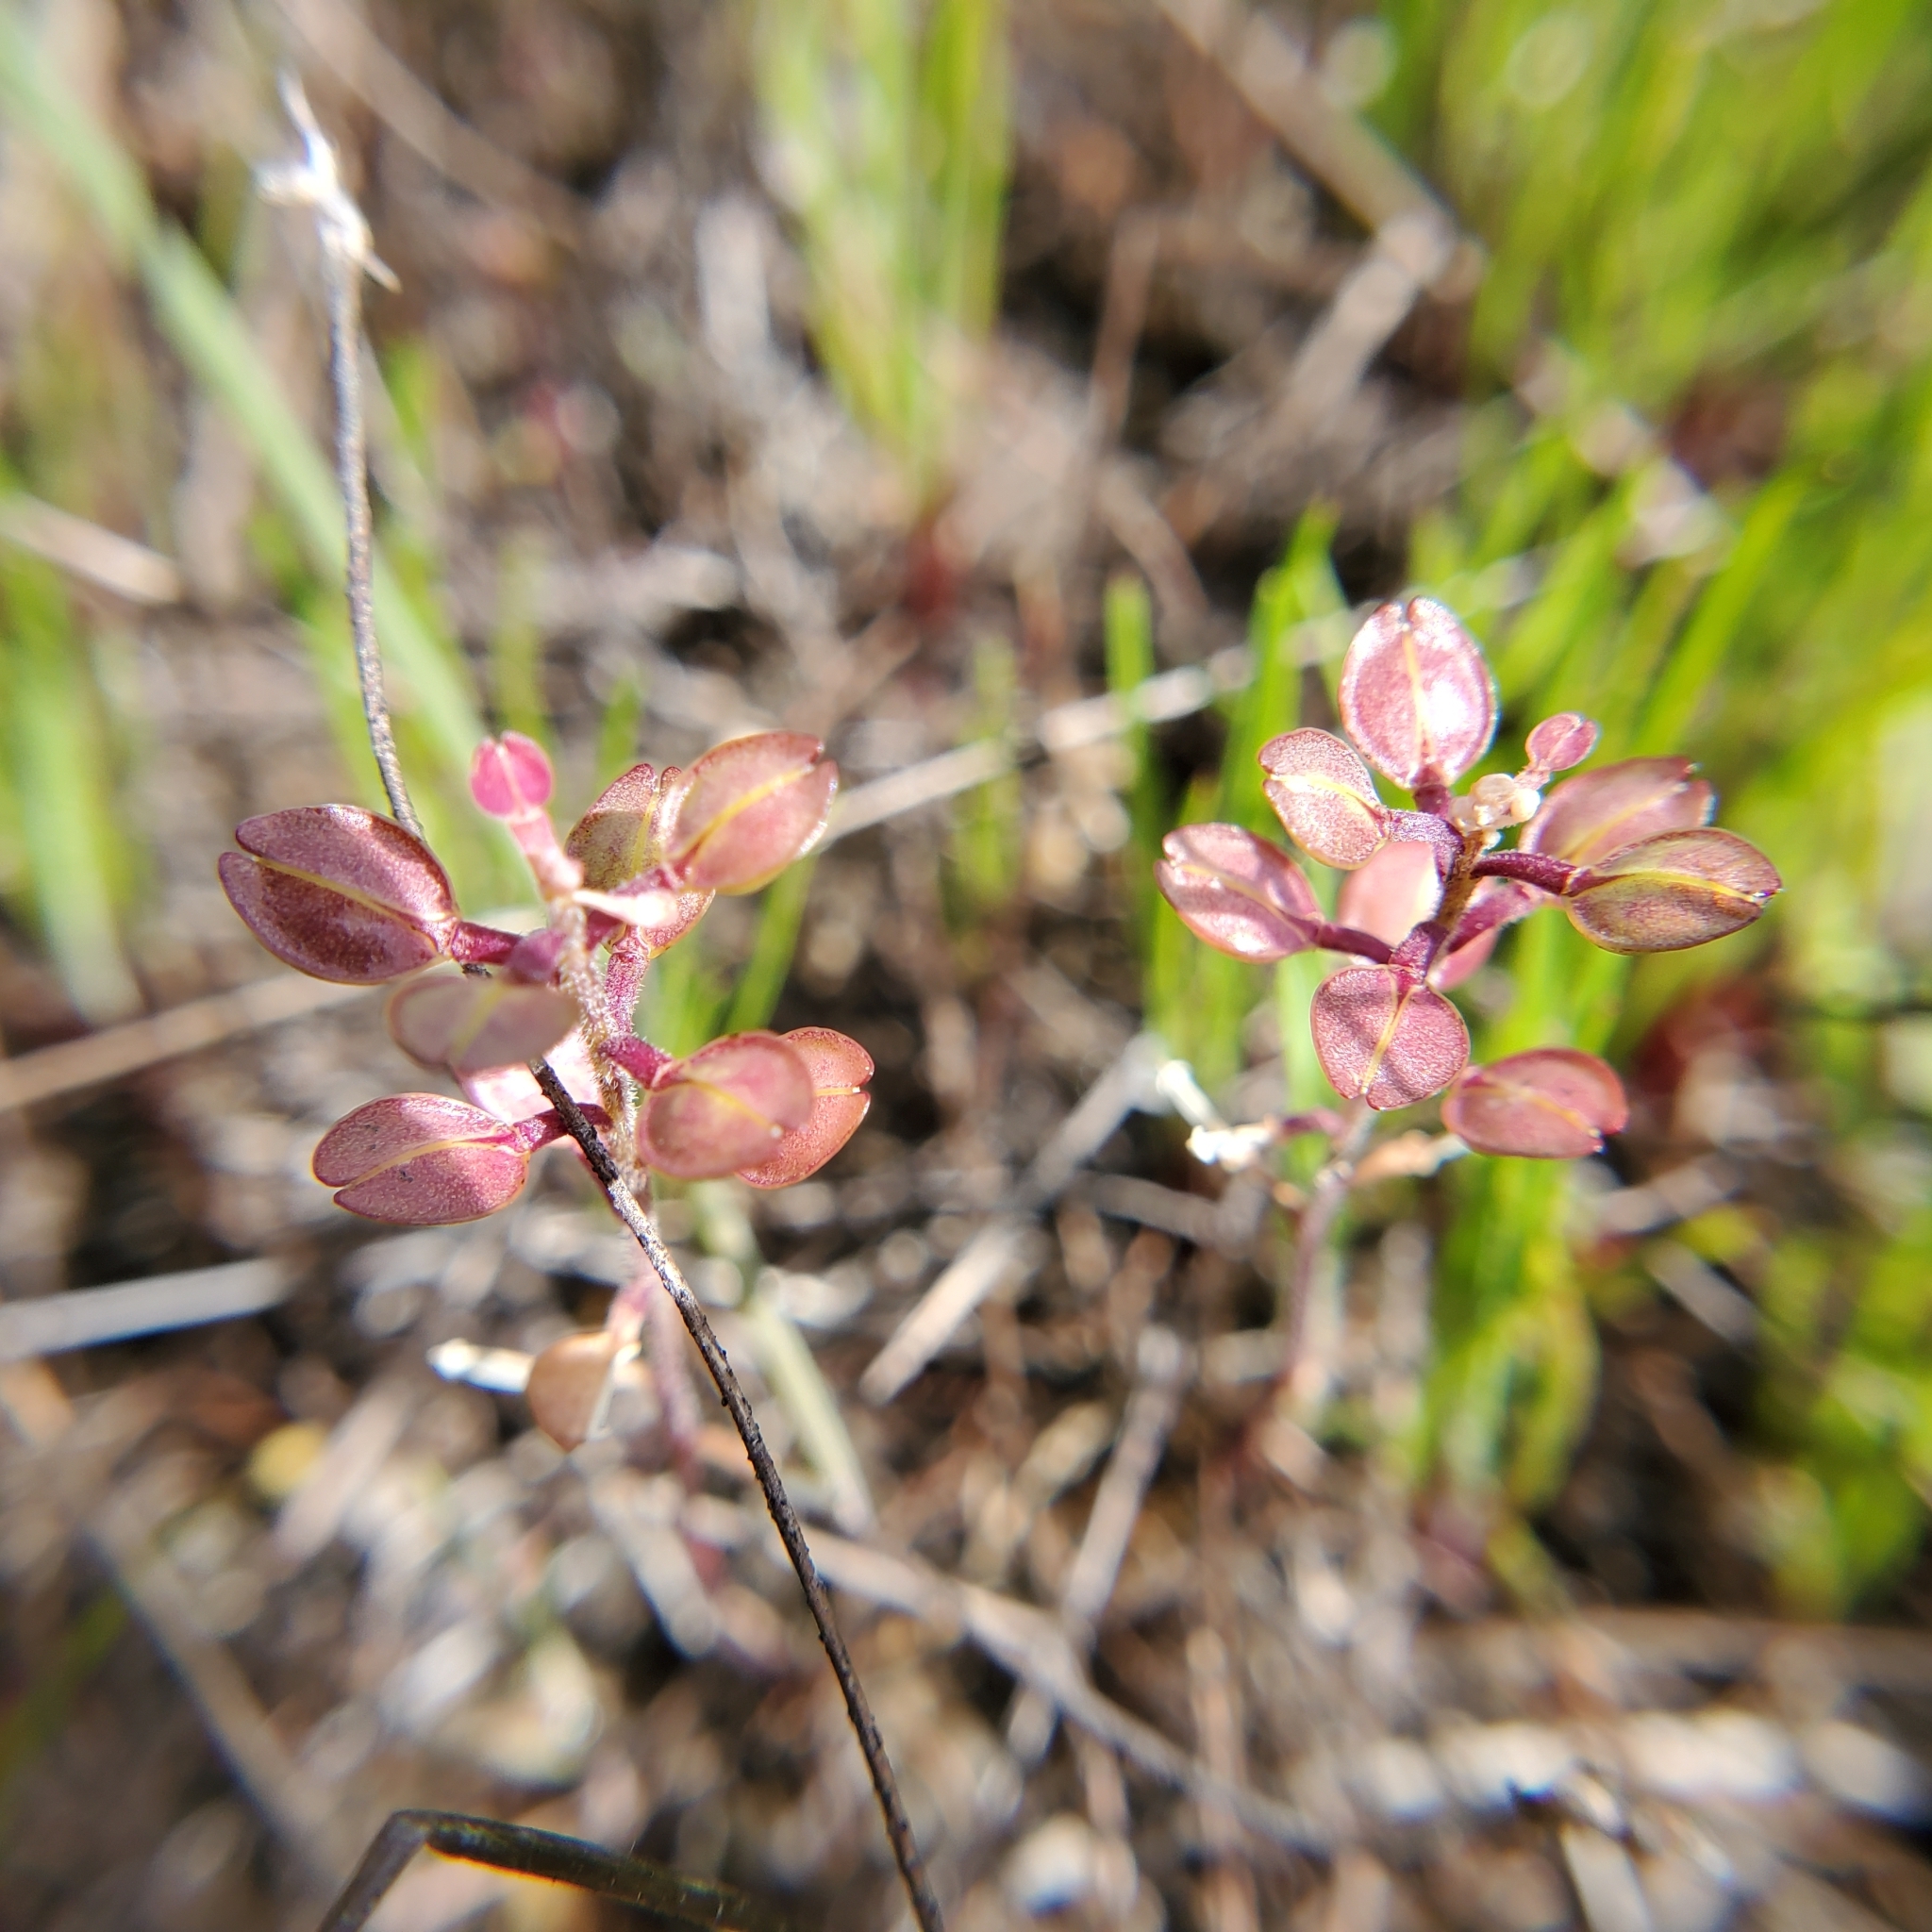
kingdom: Plantae
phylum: Tracheophyta
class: Magnoliopsida
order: Brassicales
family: Brassicaceae
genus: Lepidium
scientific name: Lepidium nitidum
